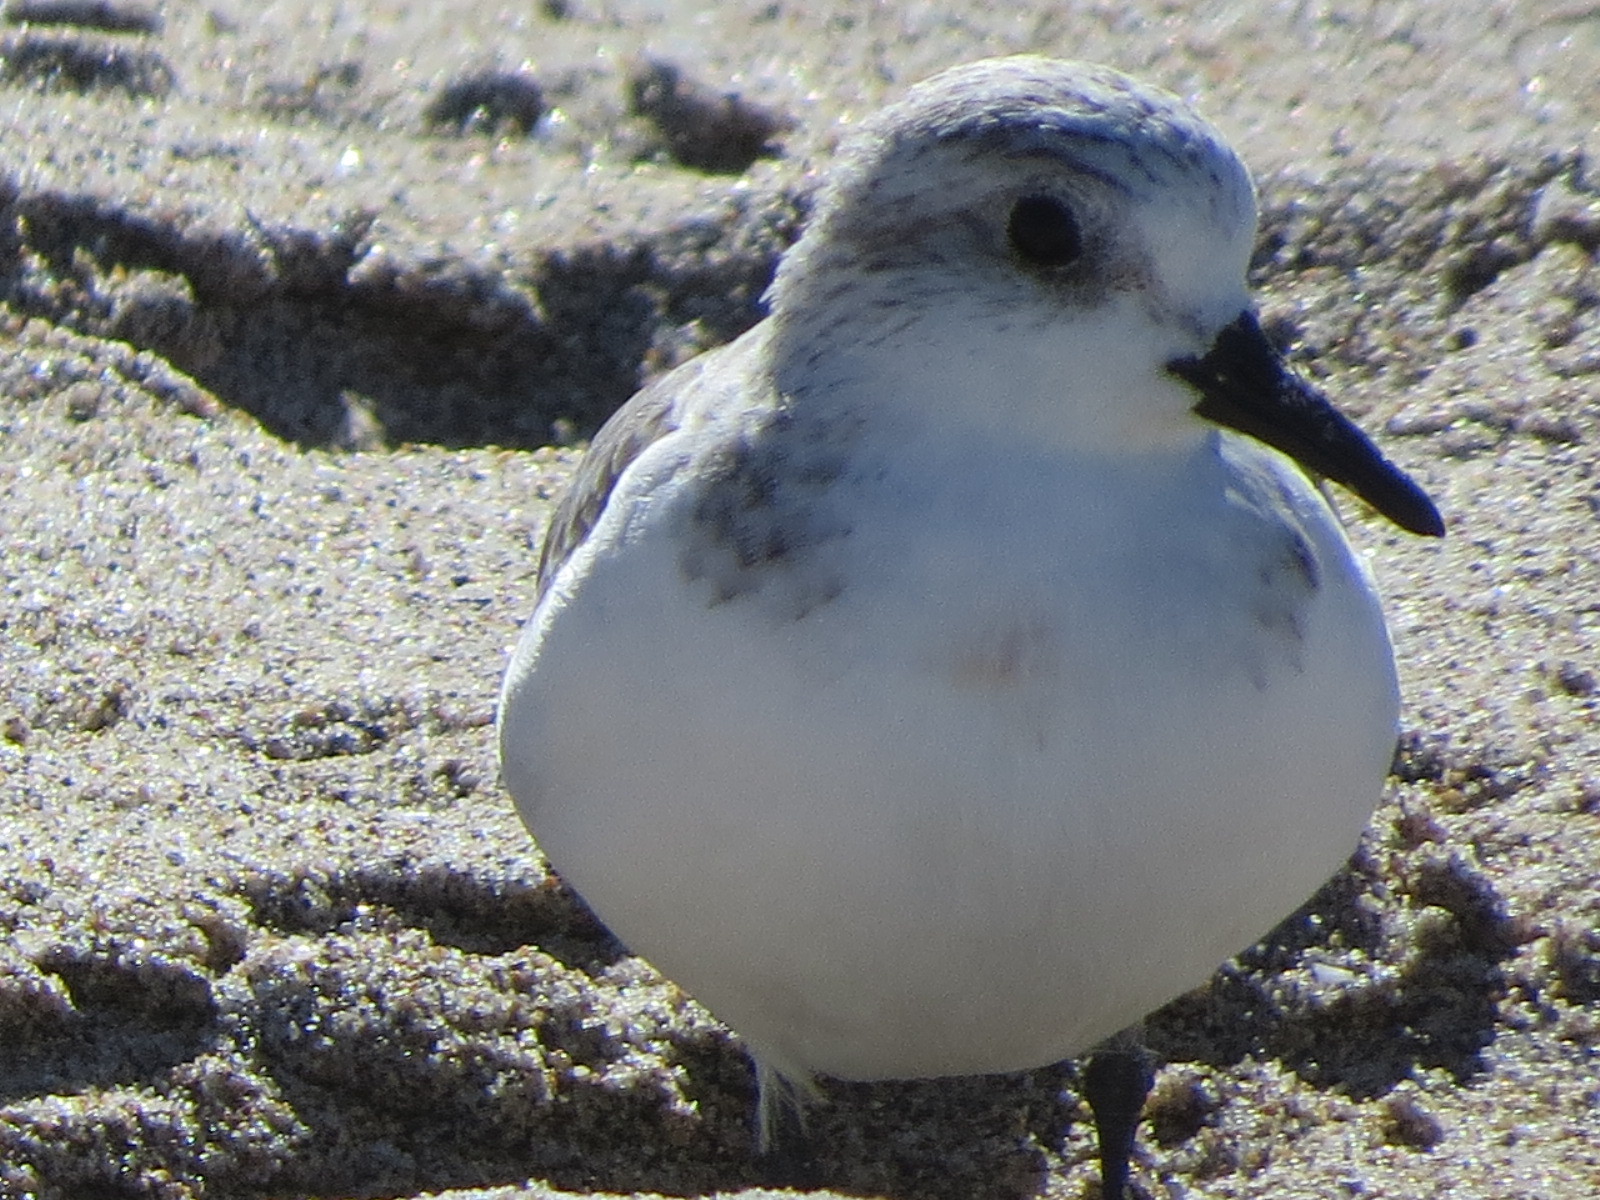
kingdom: Animalia
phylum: Chordata
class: Aves
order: Charadriiformes
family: Scolopacidae
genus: Calidris
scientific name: Calidris alba
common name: Sanderling
